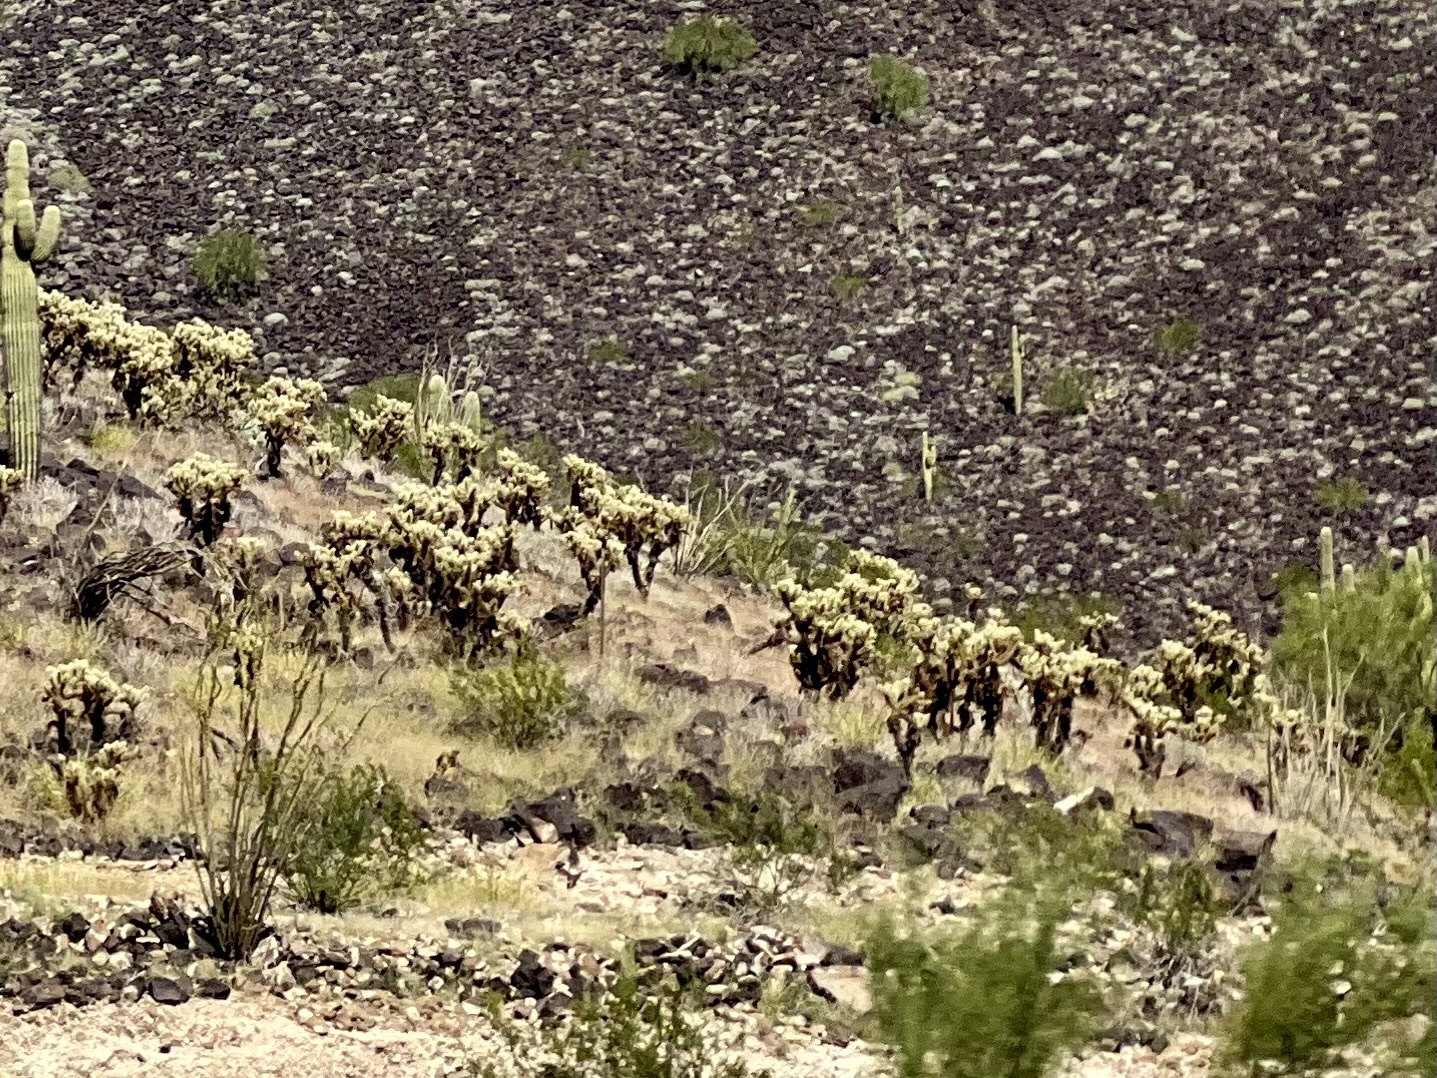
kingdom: Plantae
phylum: Tracheophyta
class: Magnoliopsida
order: Caryophyllales
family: Cactaceae
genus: Cylindropuntia
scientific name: Cylindropuntia fosbergii
